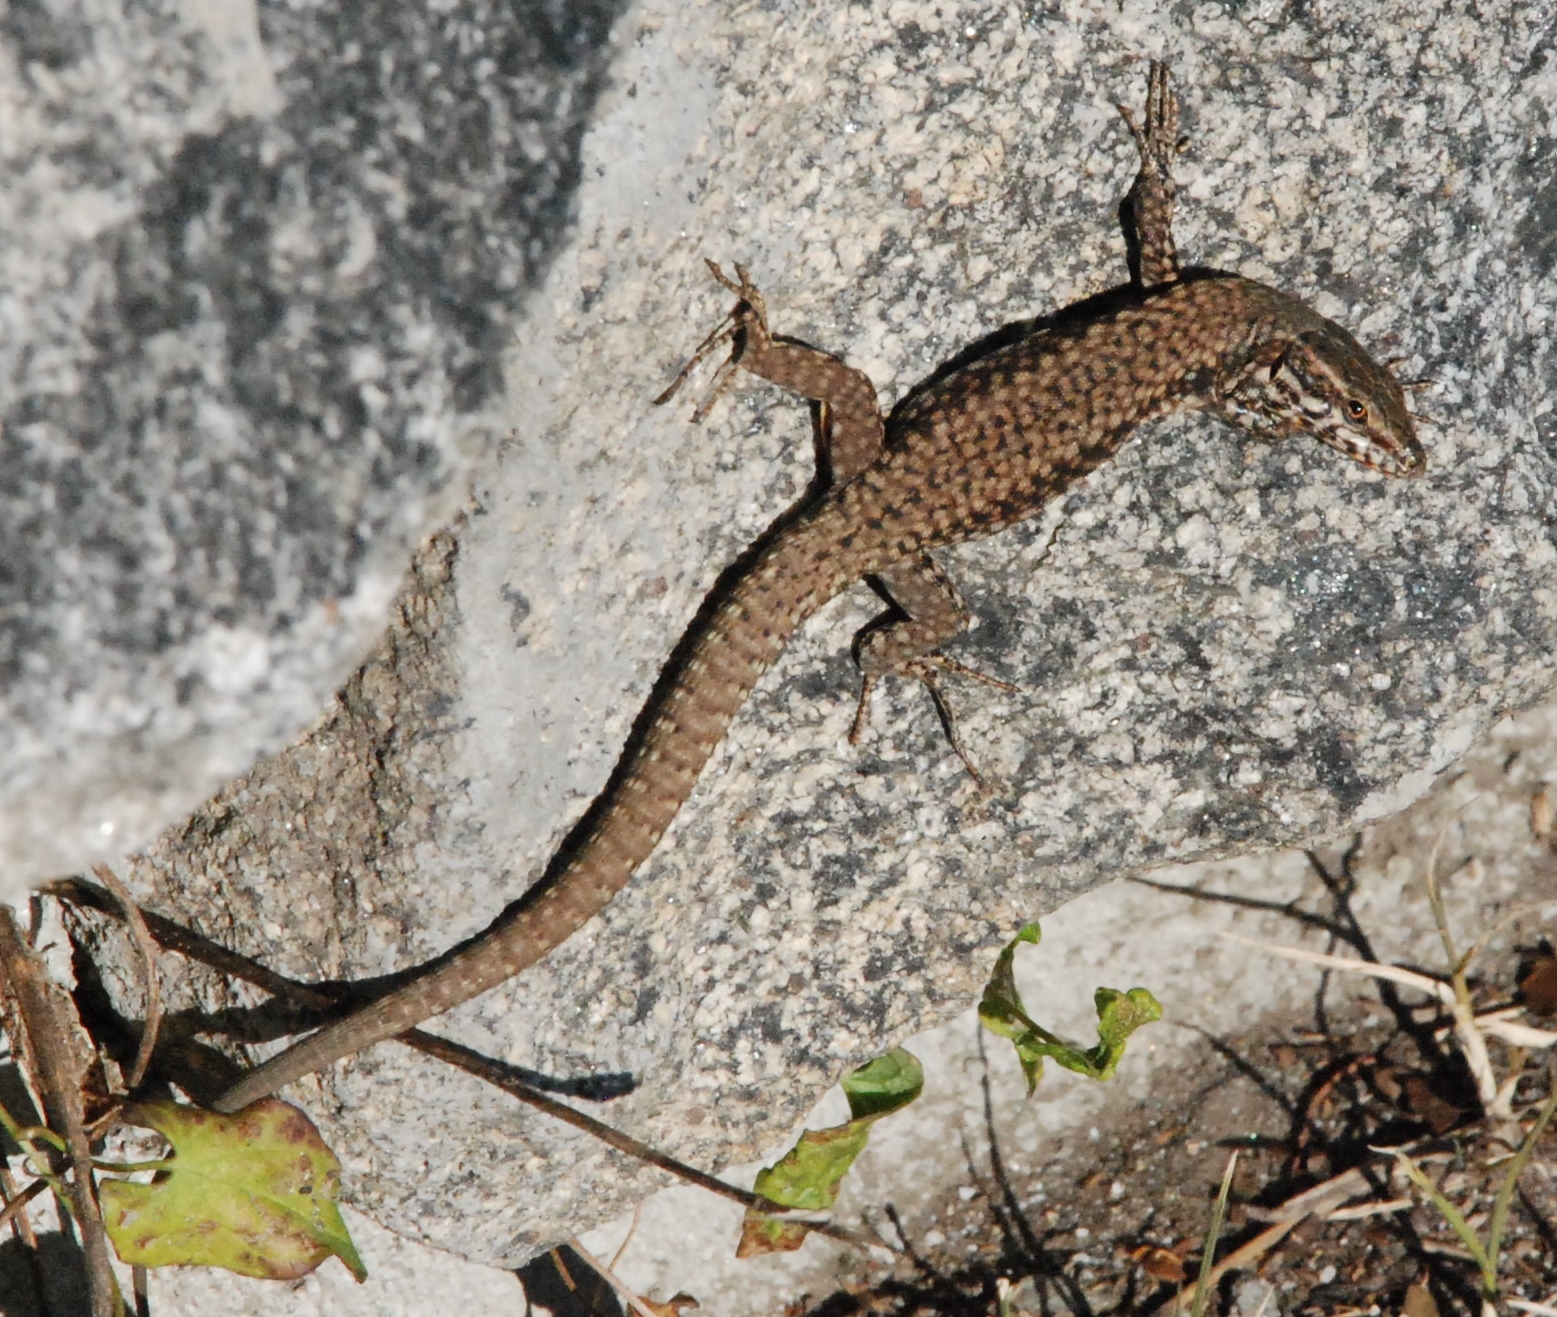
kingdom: Animalia
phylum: Chordata
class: Squamata
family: Lacertidae
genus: Podarcis
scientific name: Podarcis muralis
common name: Common wall lizard
